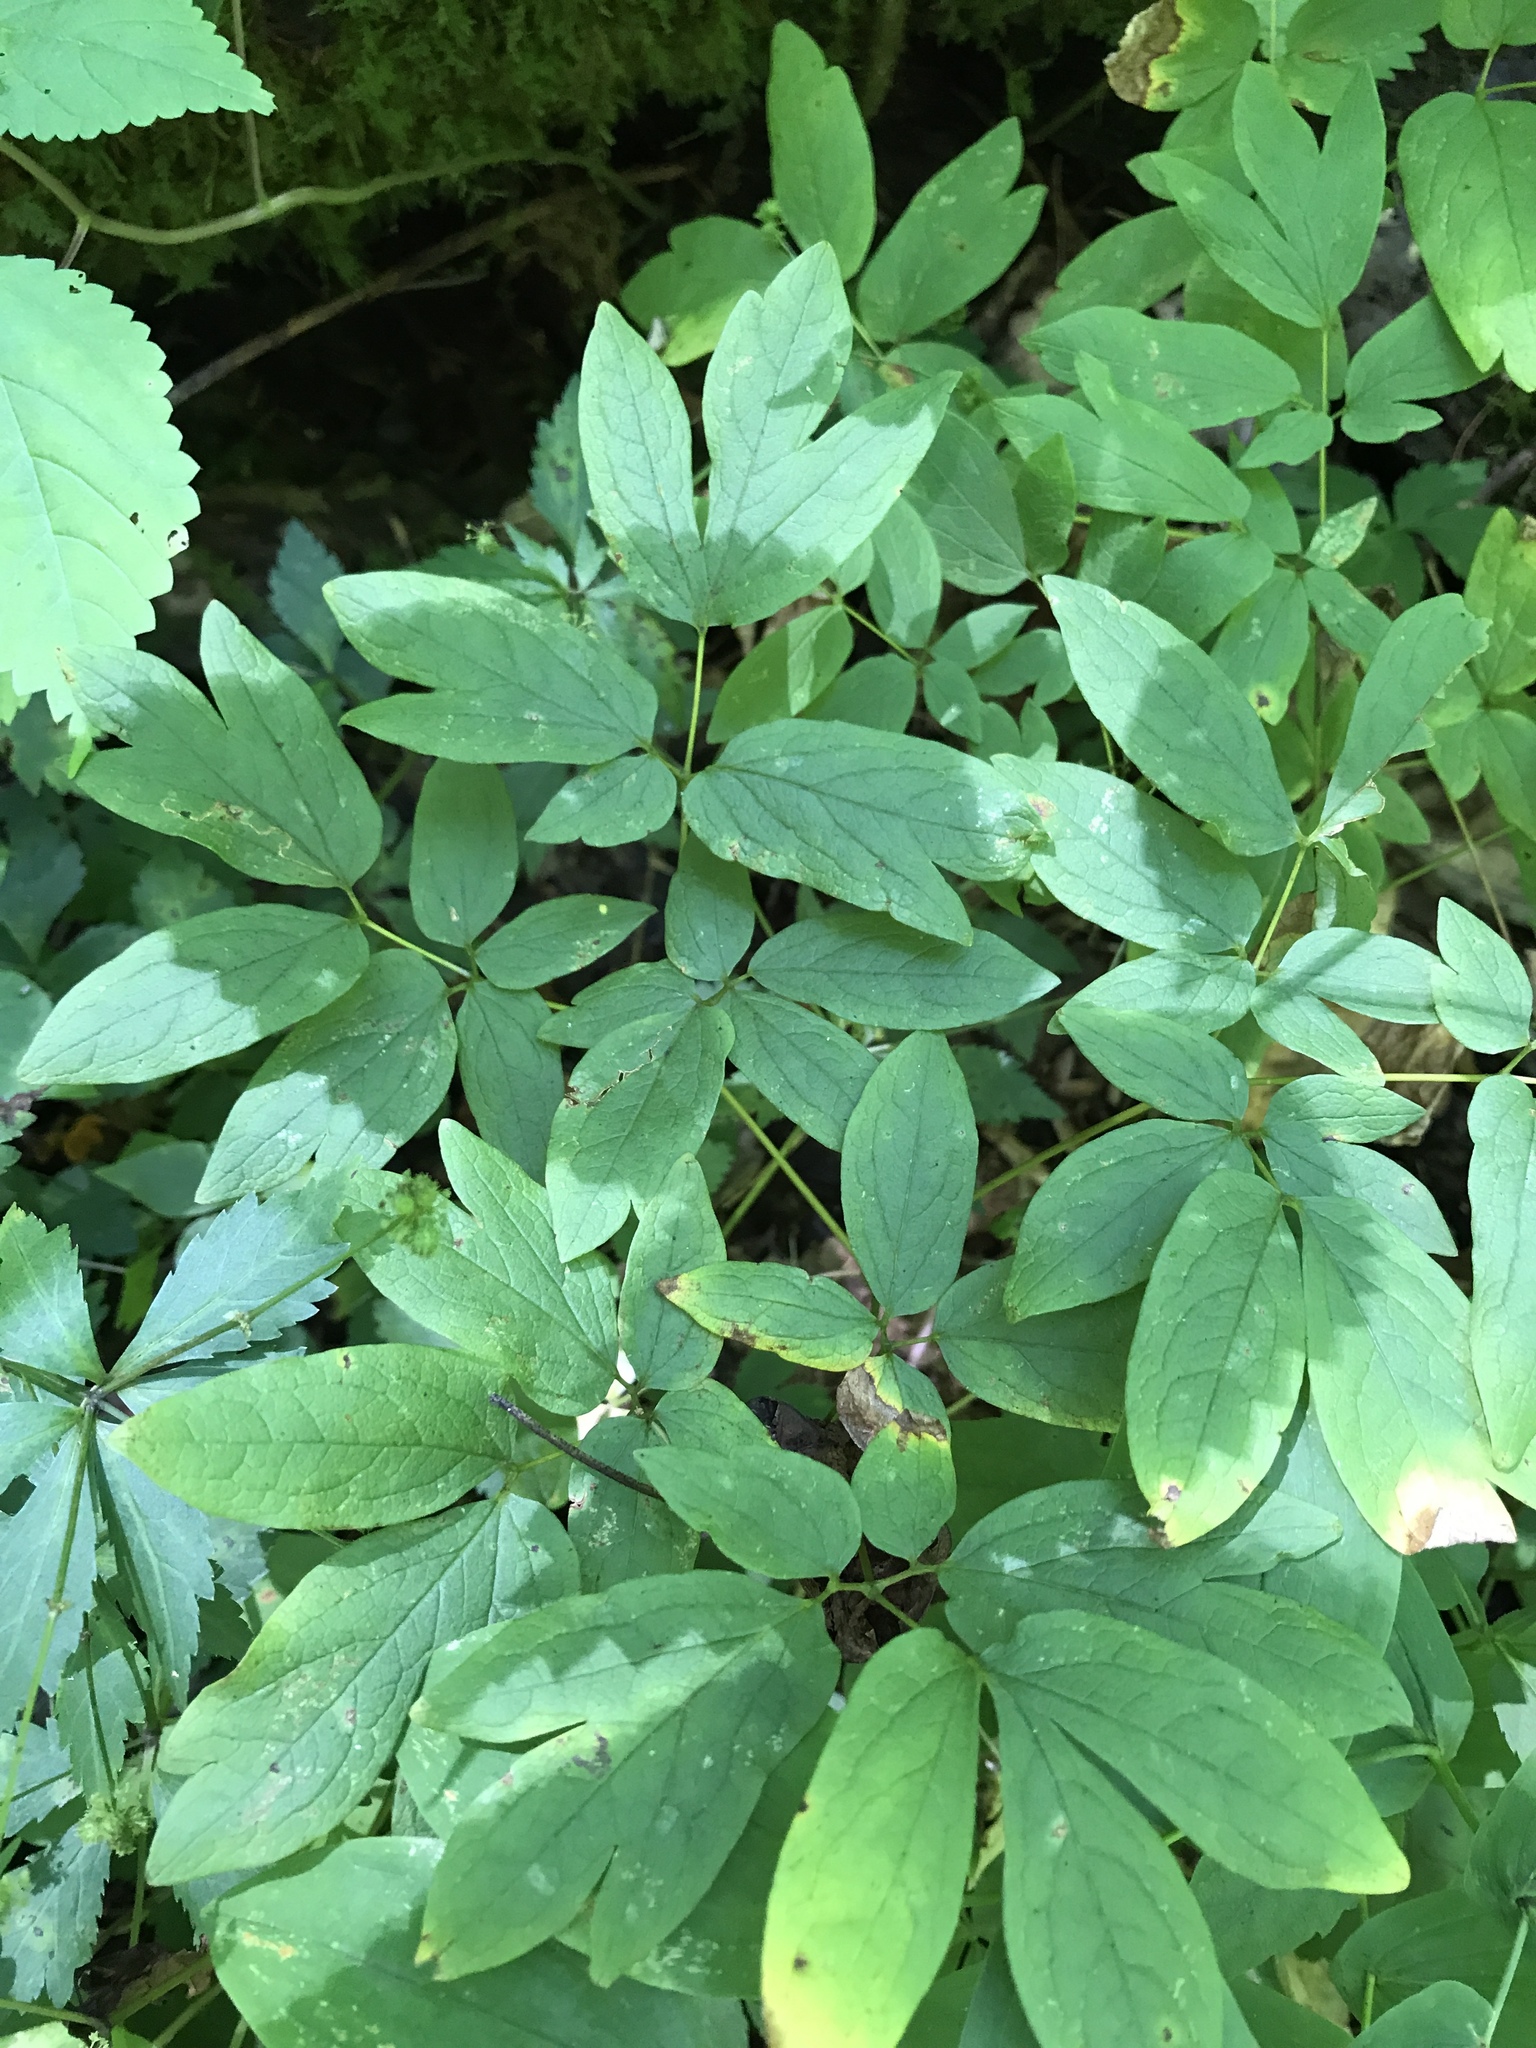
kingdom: Plantae
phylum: Tracheophyta
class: Magnoliopsida
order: Ranunculales
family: Berberidaceae
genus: Caulophyllum
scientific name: Caulophyllum thalictroides
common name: Blue cohosh
